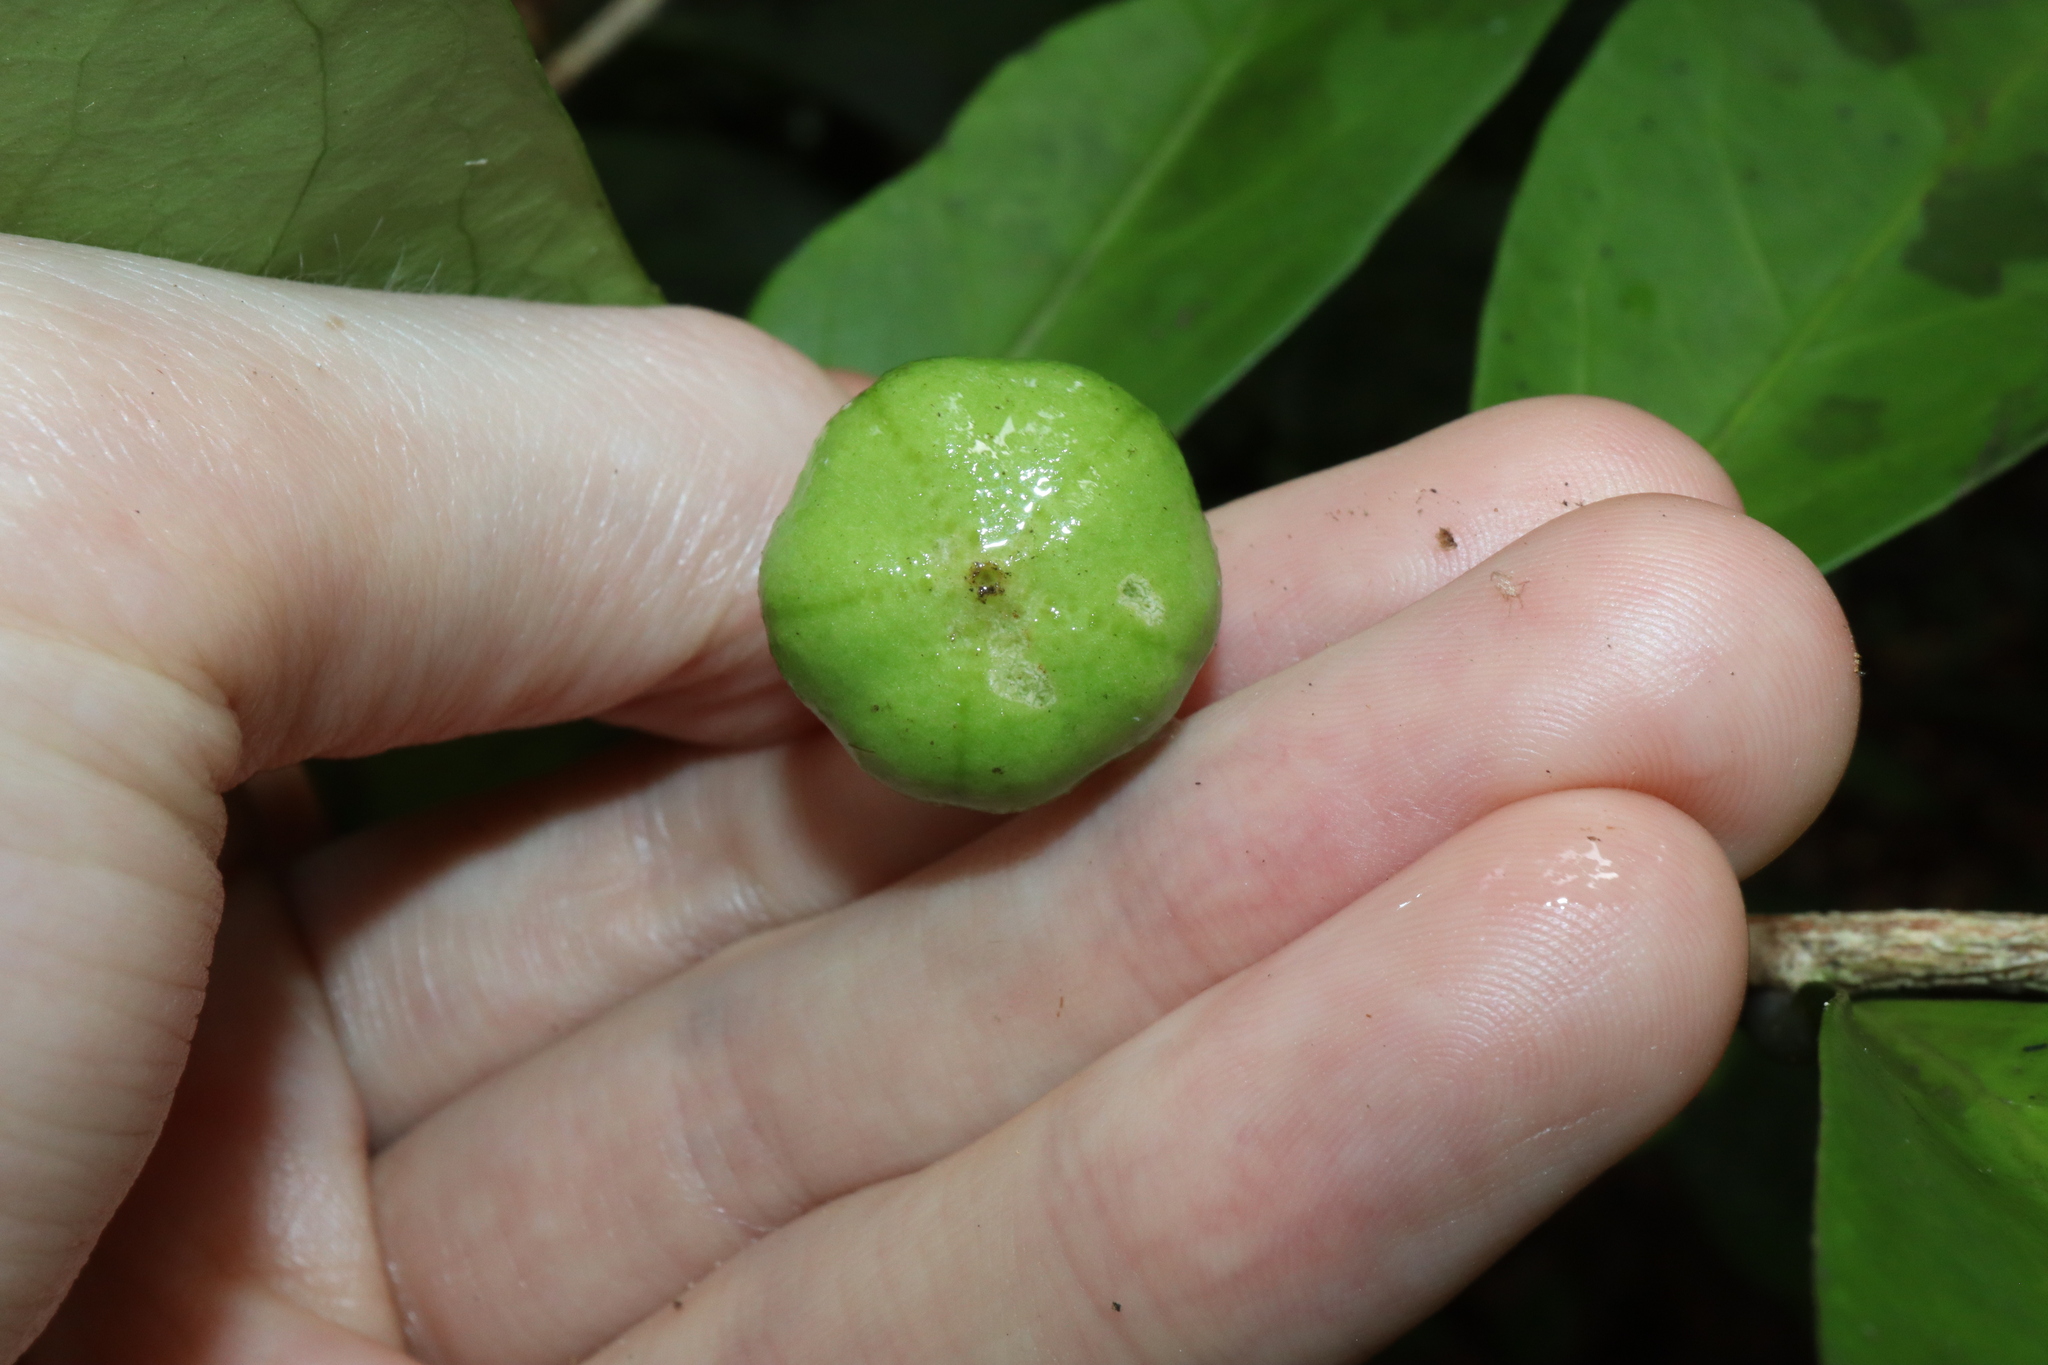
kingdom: Plantae
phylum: Tracheophyta
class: Magnoliopsida
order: Celastrales
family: Celastraceae
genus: Hedraianthera
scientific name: Hedraianthera porphyropetala
